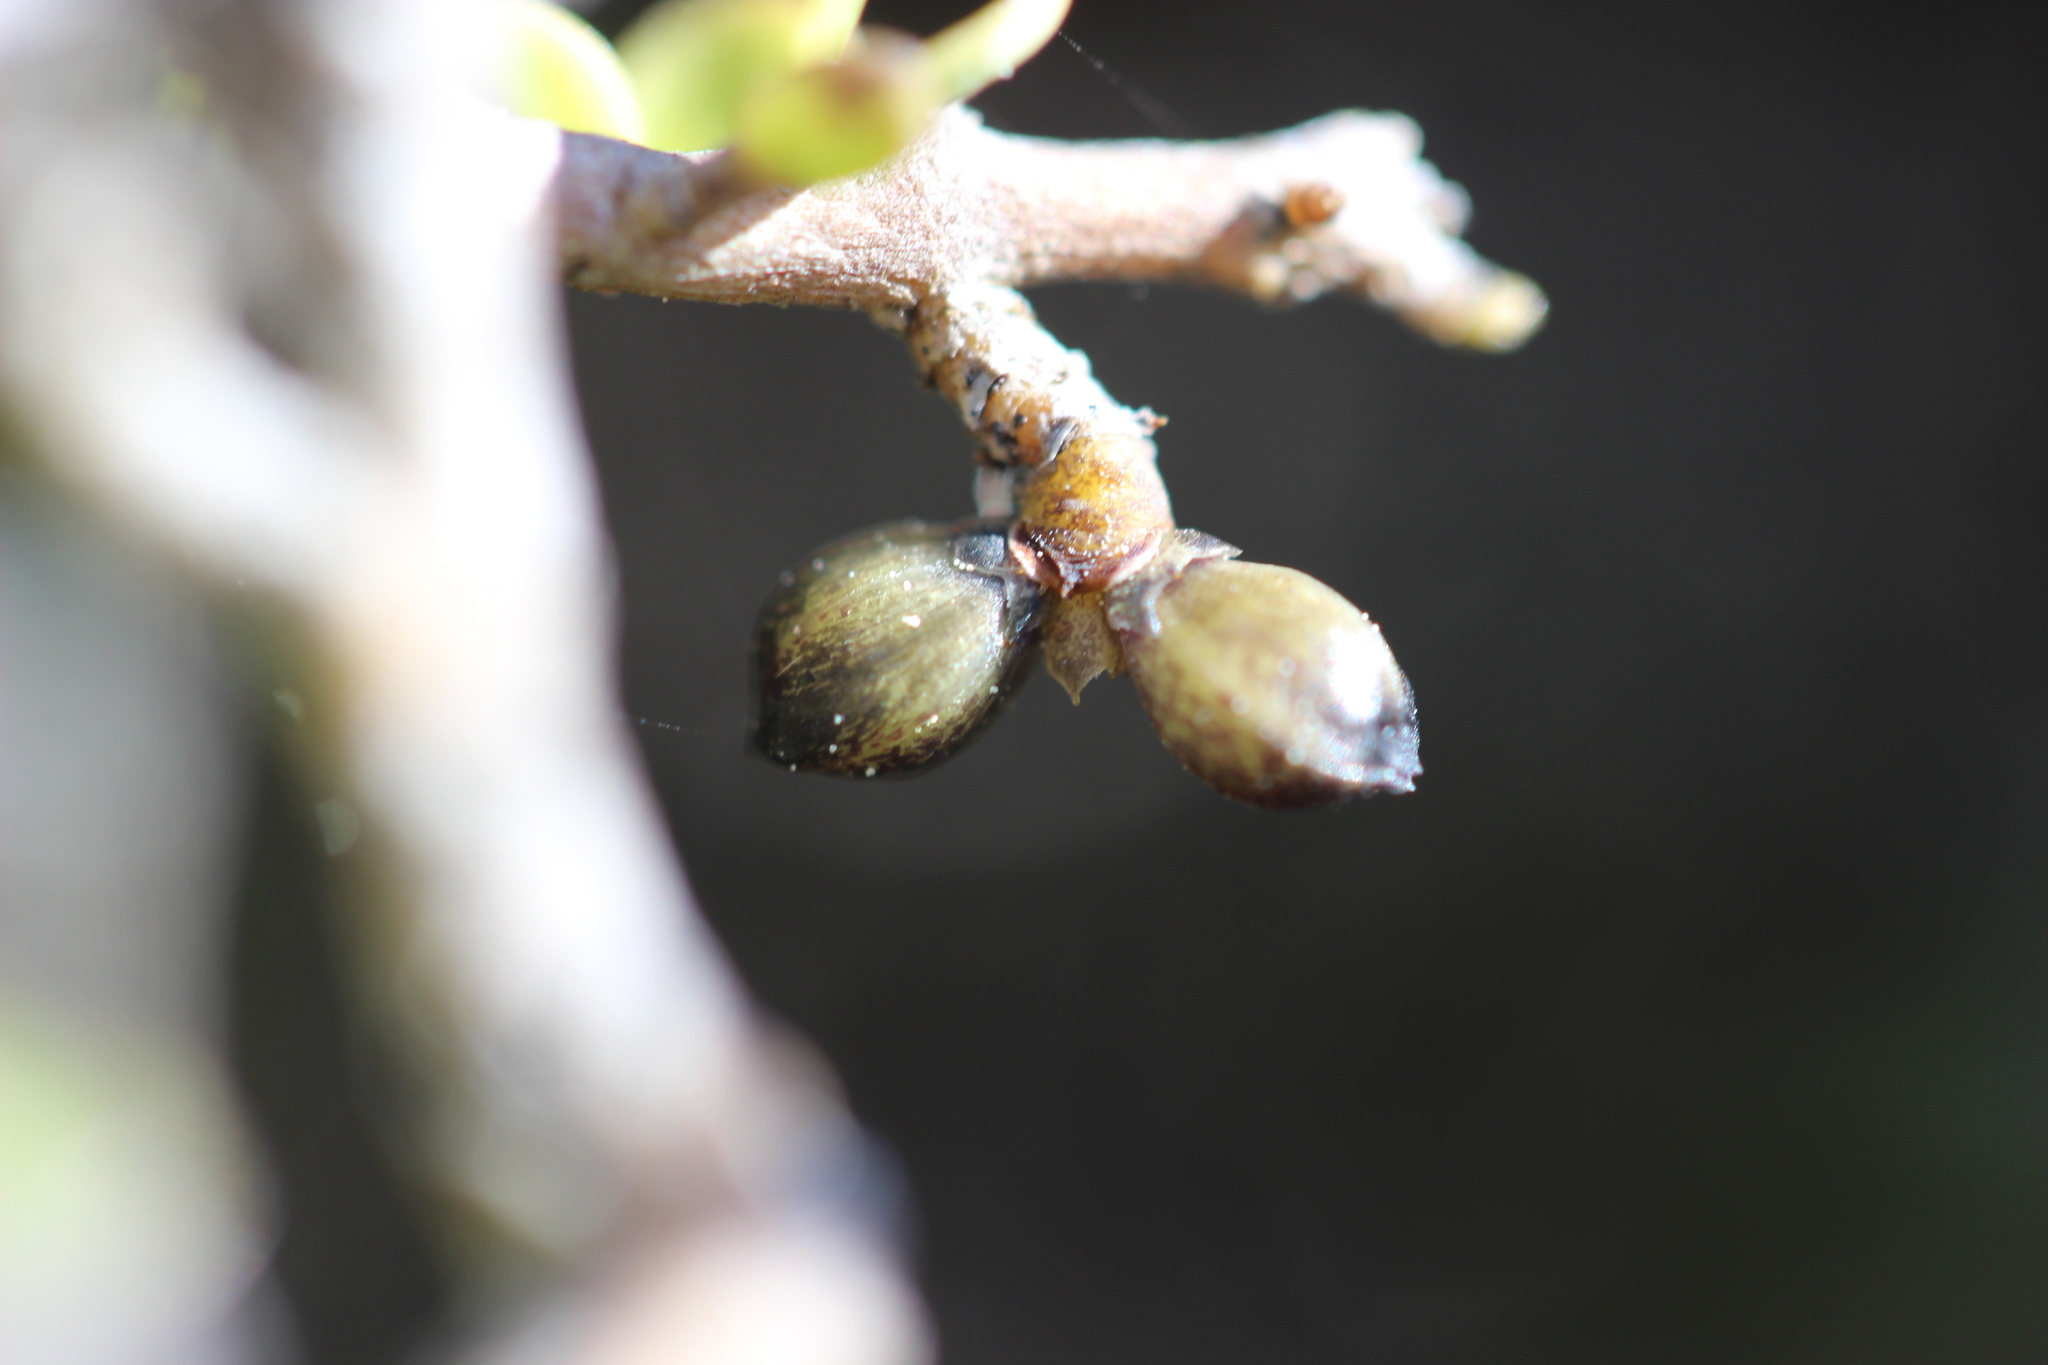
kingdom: Plantae
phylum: Tracheophyta
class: Magnoliopsida
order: Gentianales
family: Rubiaceae
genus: Coprosma
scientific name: Coprosma propinqua
